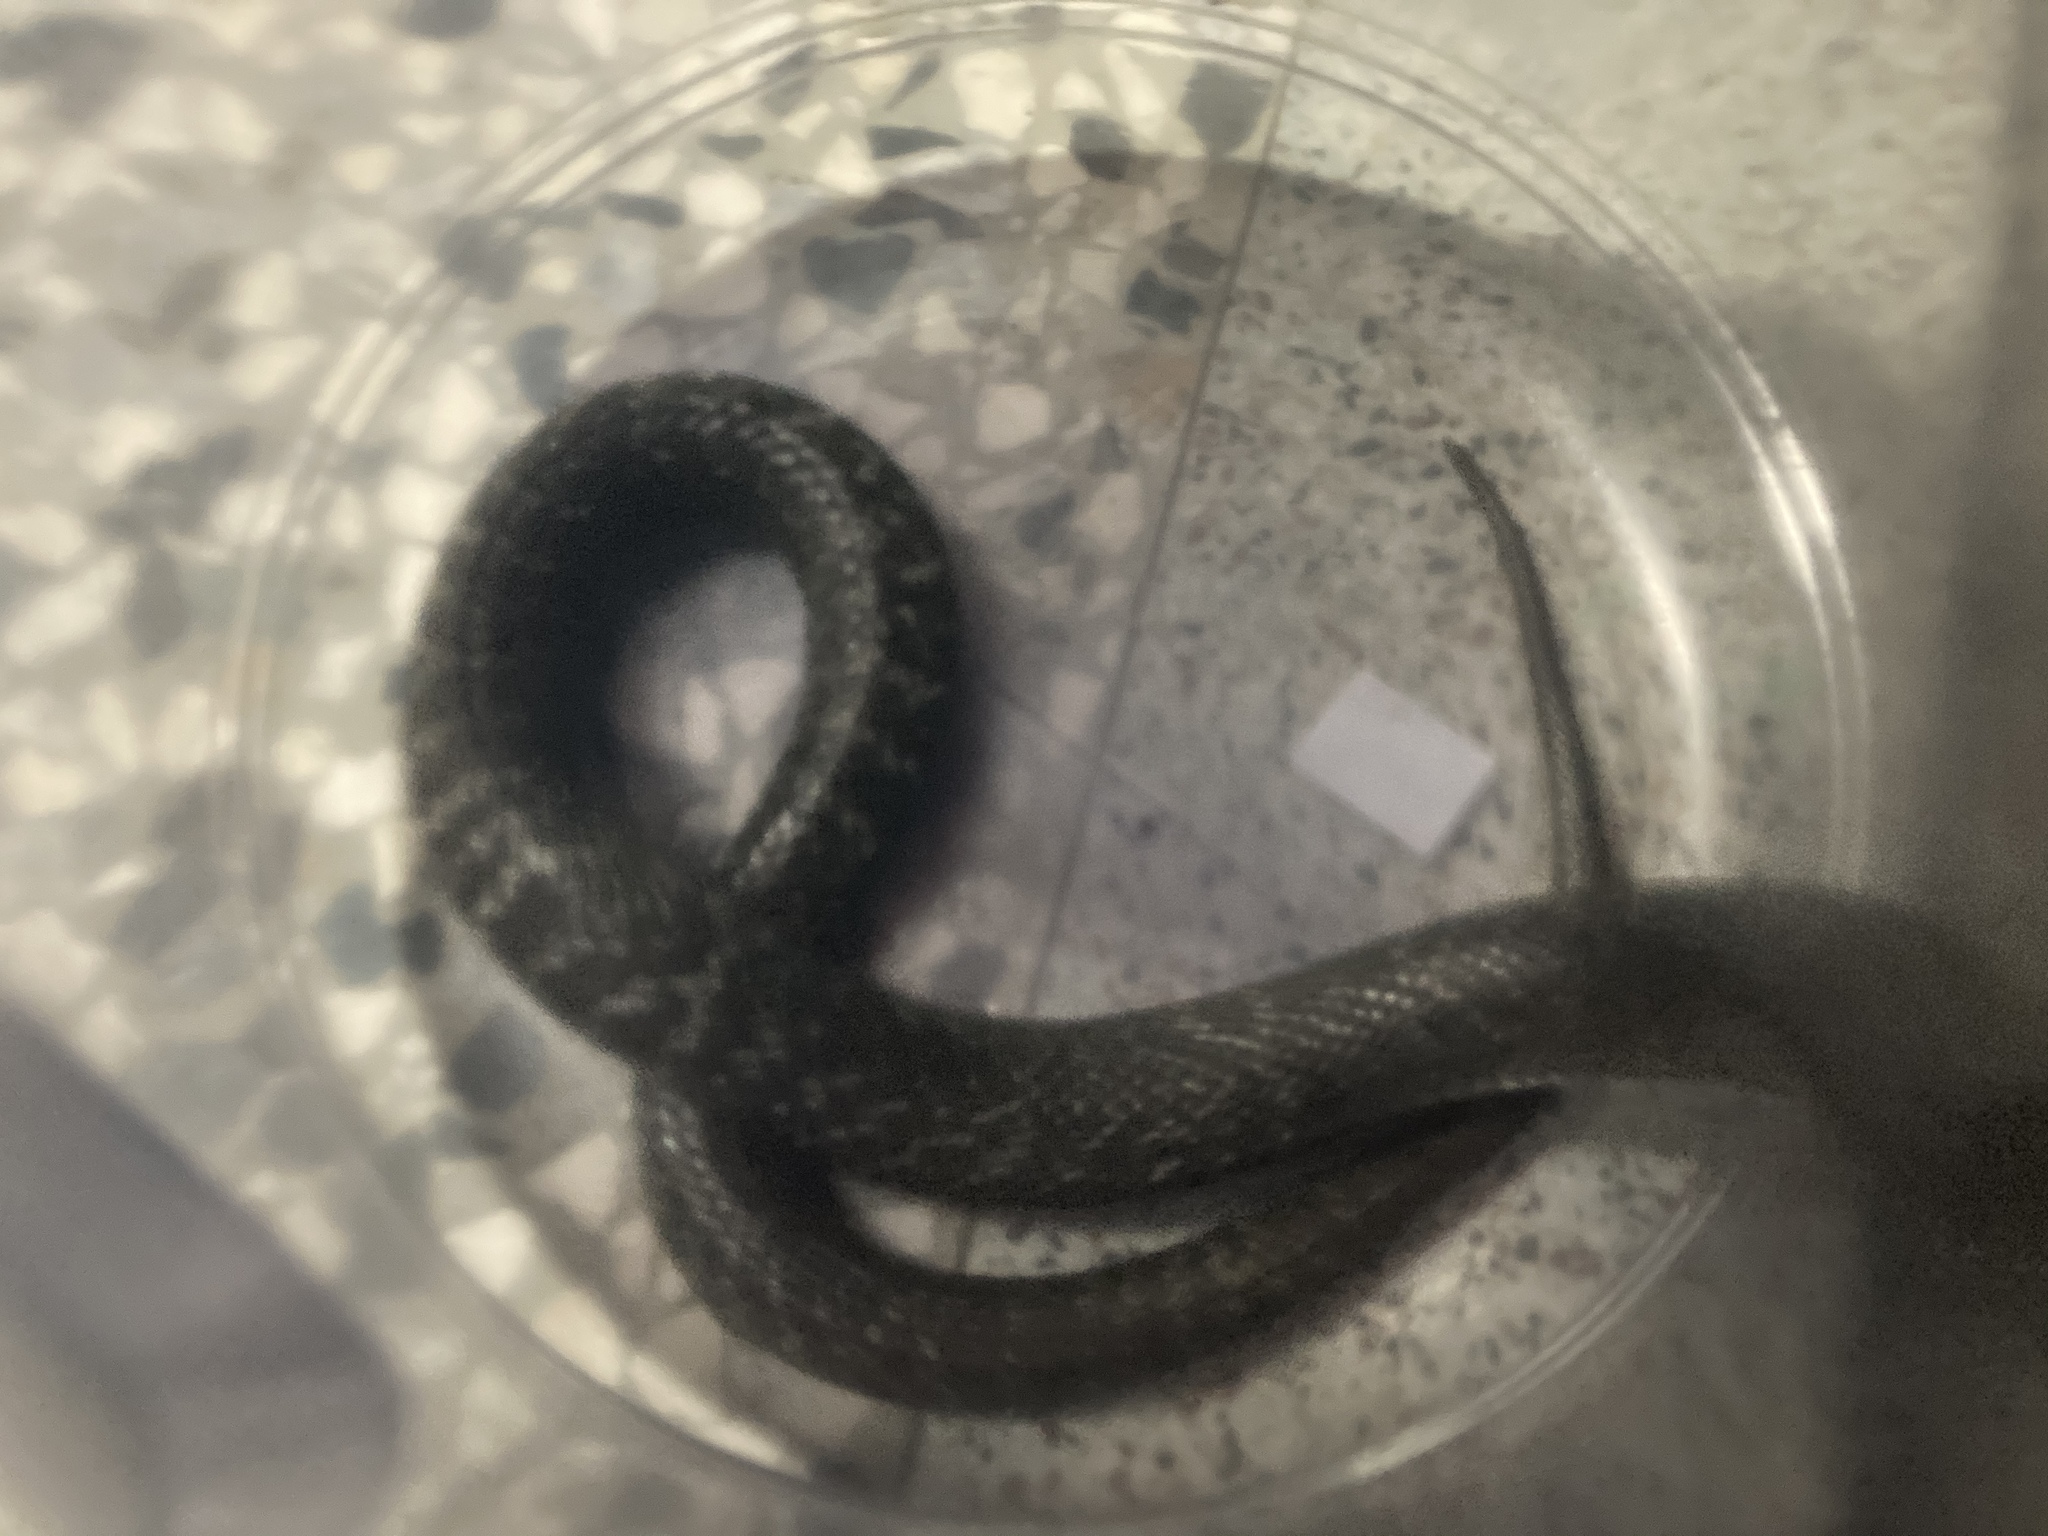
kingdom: Animalia
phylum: Chordata
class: Squamata
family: Elapidae
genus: Naja
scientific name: Naja atra
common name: Chinese cobra
